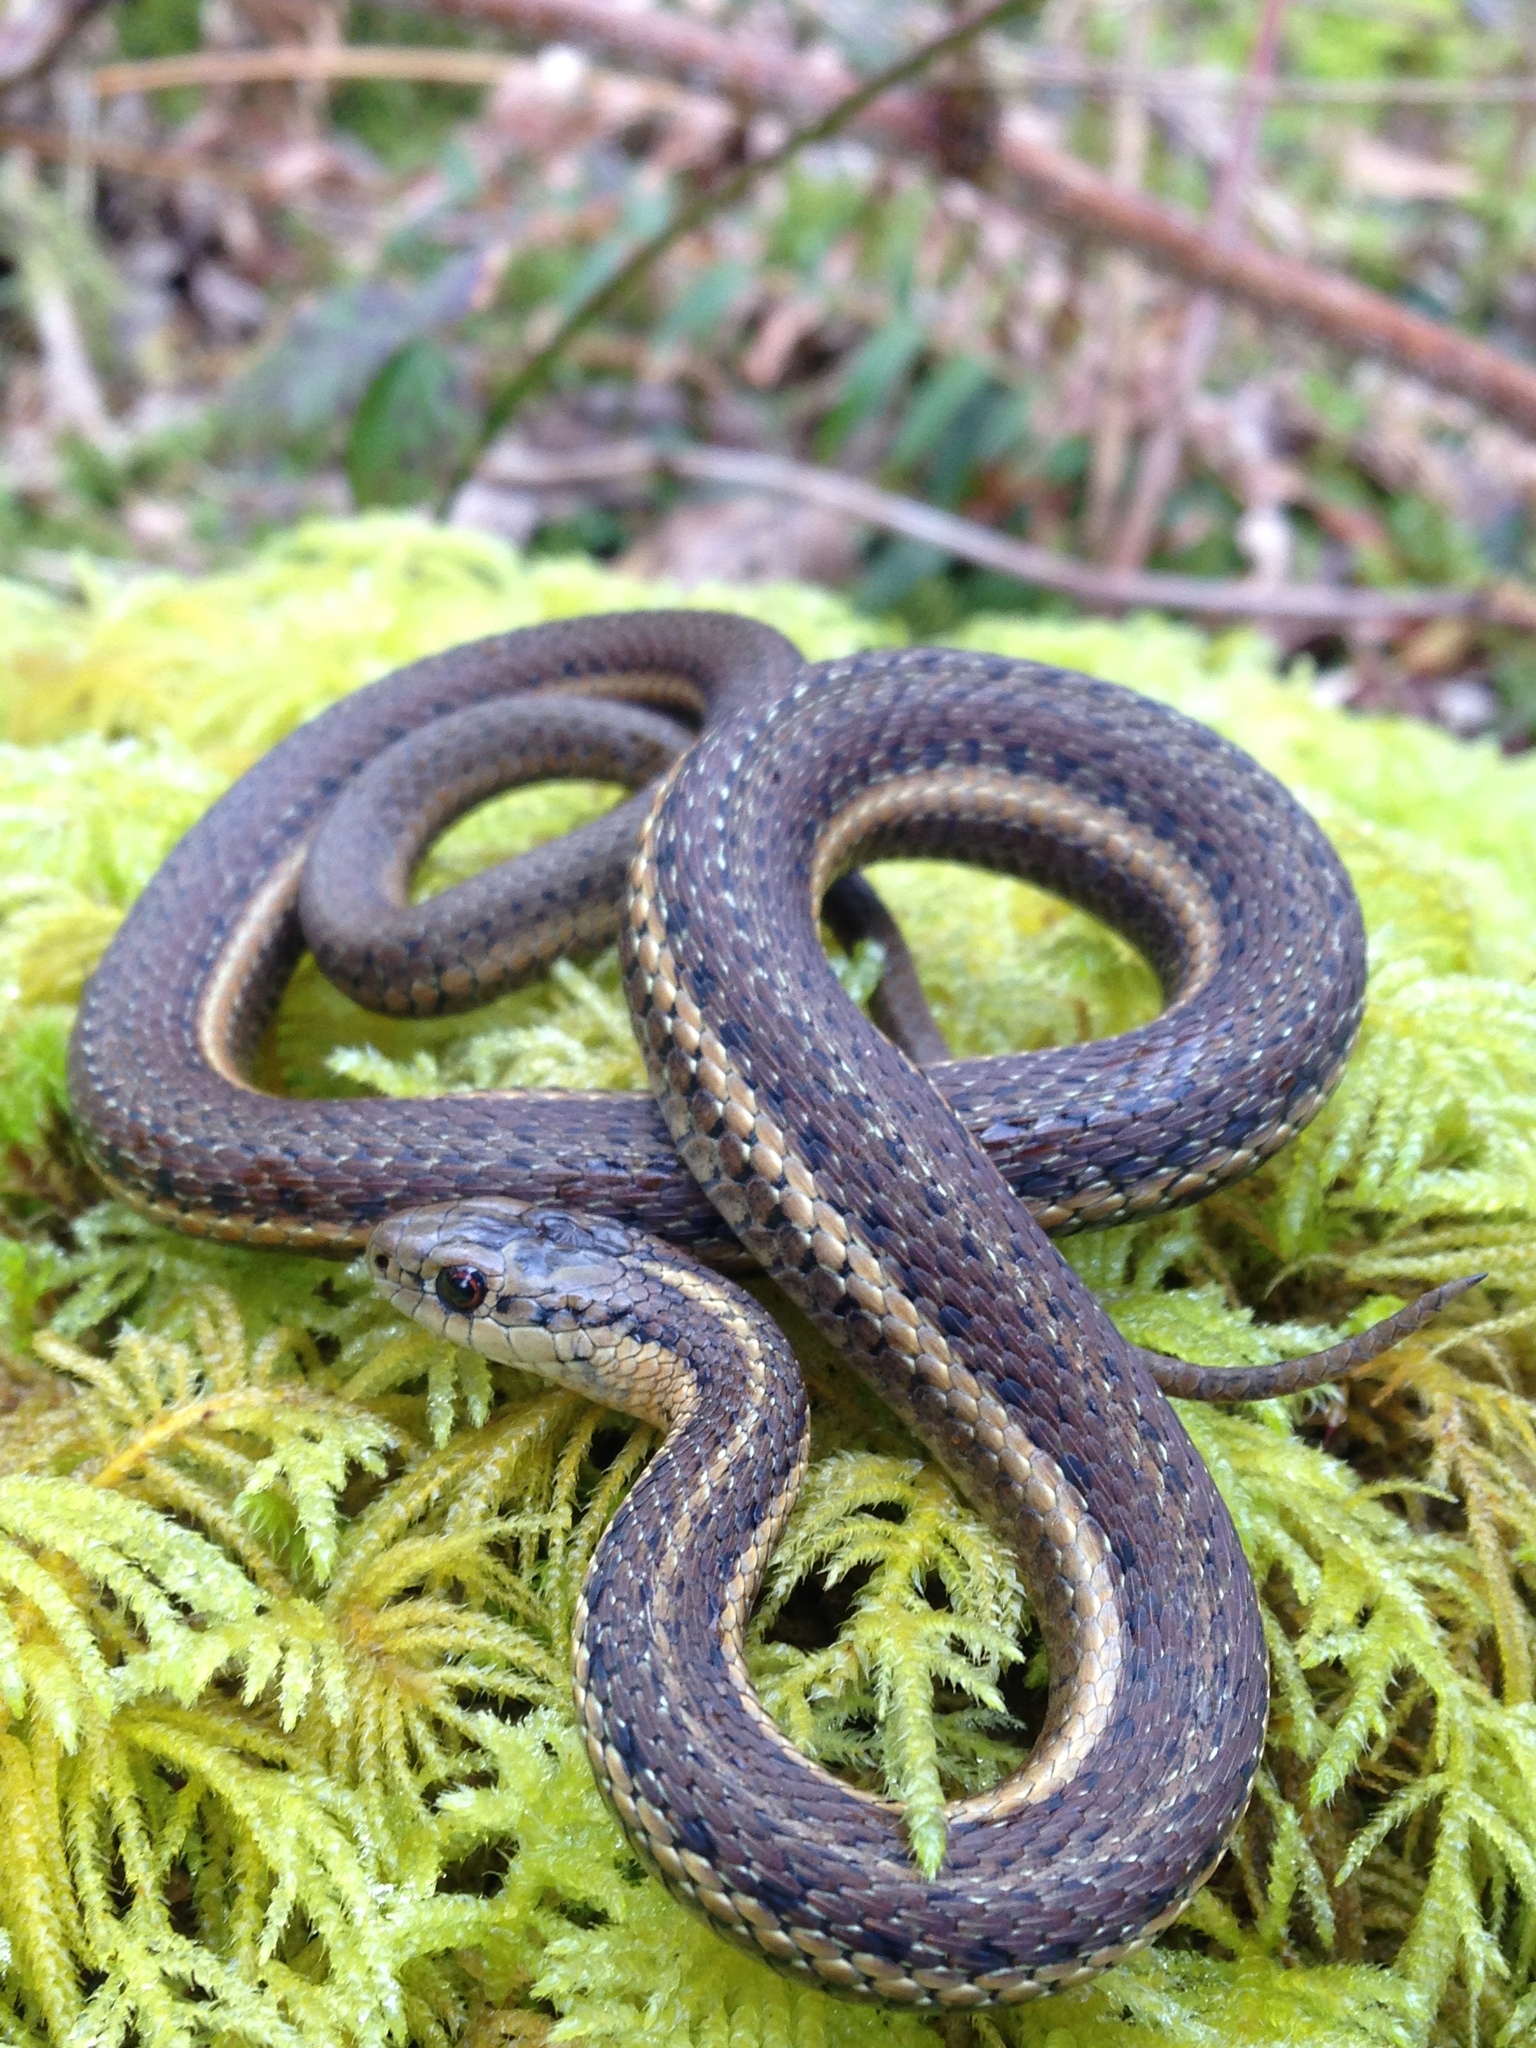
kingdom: Animalia
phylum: Chordata
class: Squamata
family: Colubridae
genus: Thamnophis
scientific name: Thamnophis ordinoides
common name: Northwestern garter snake
